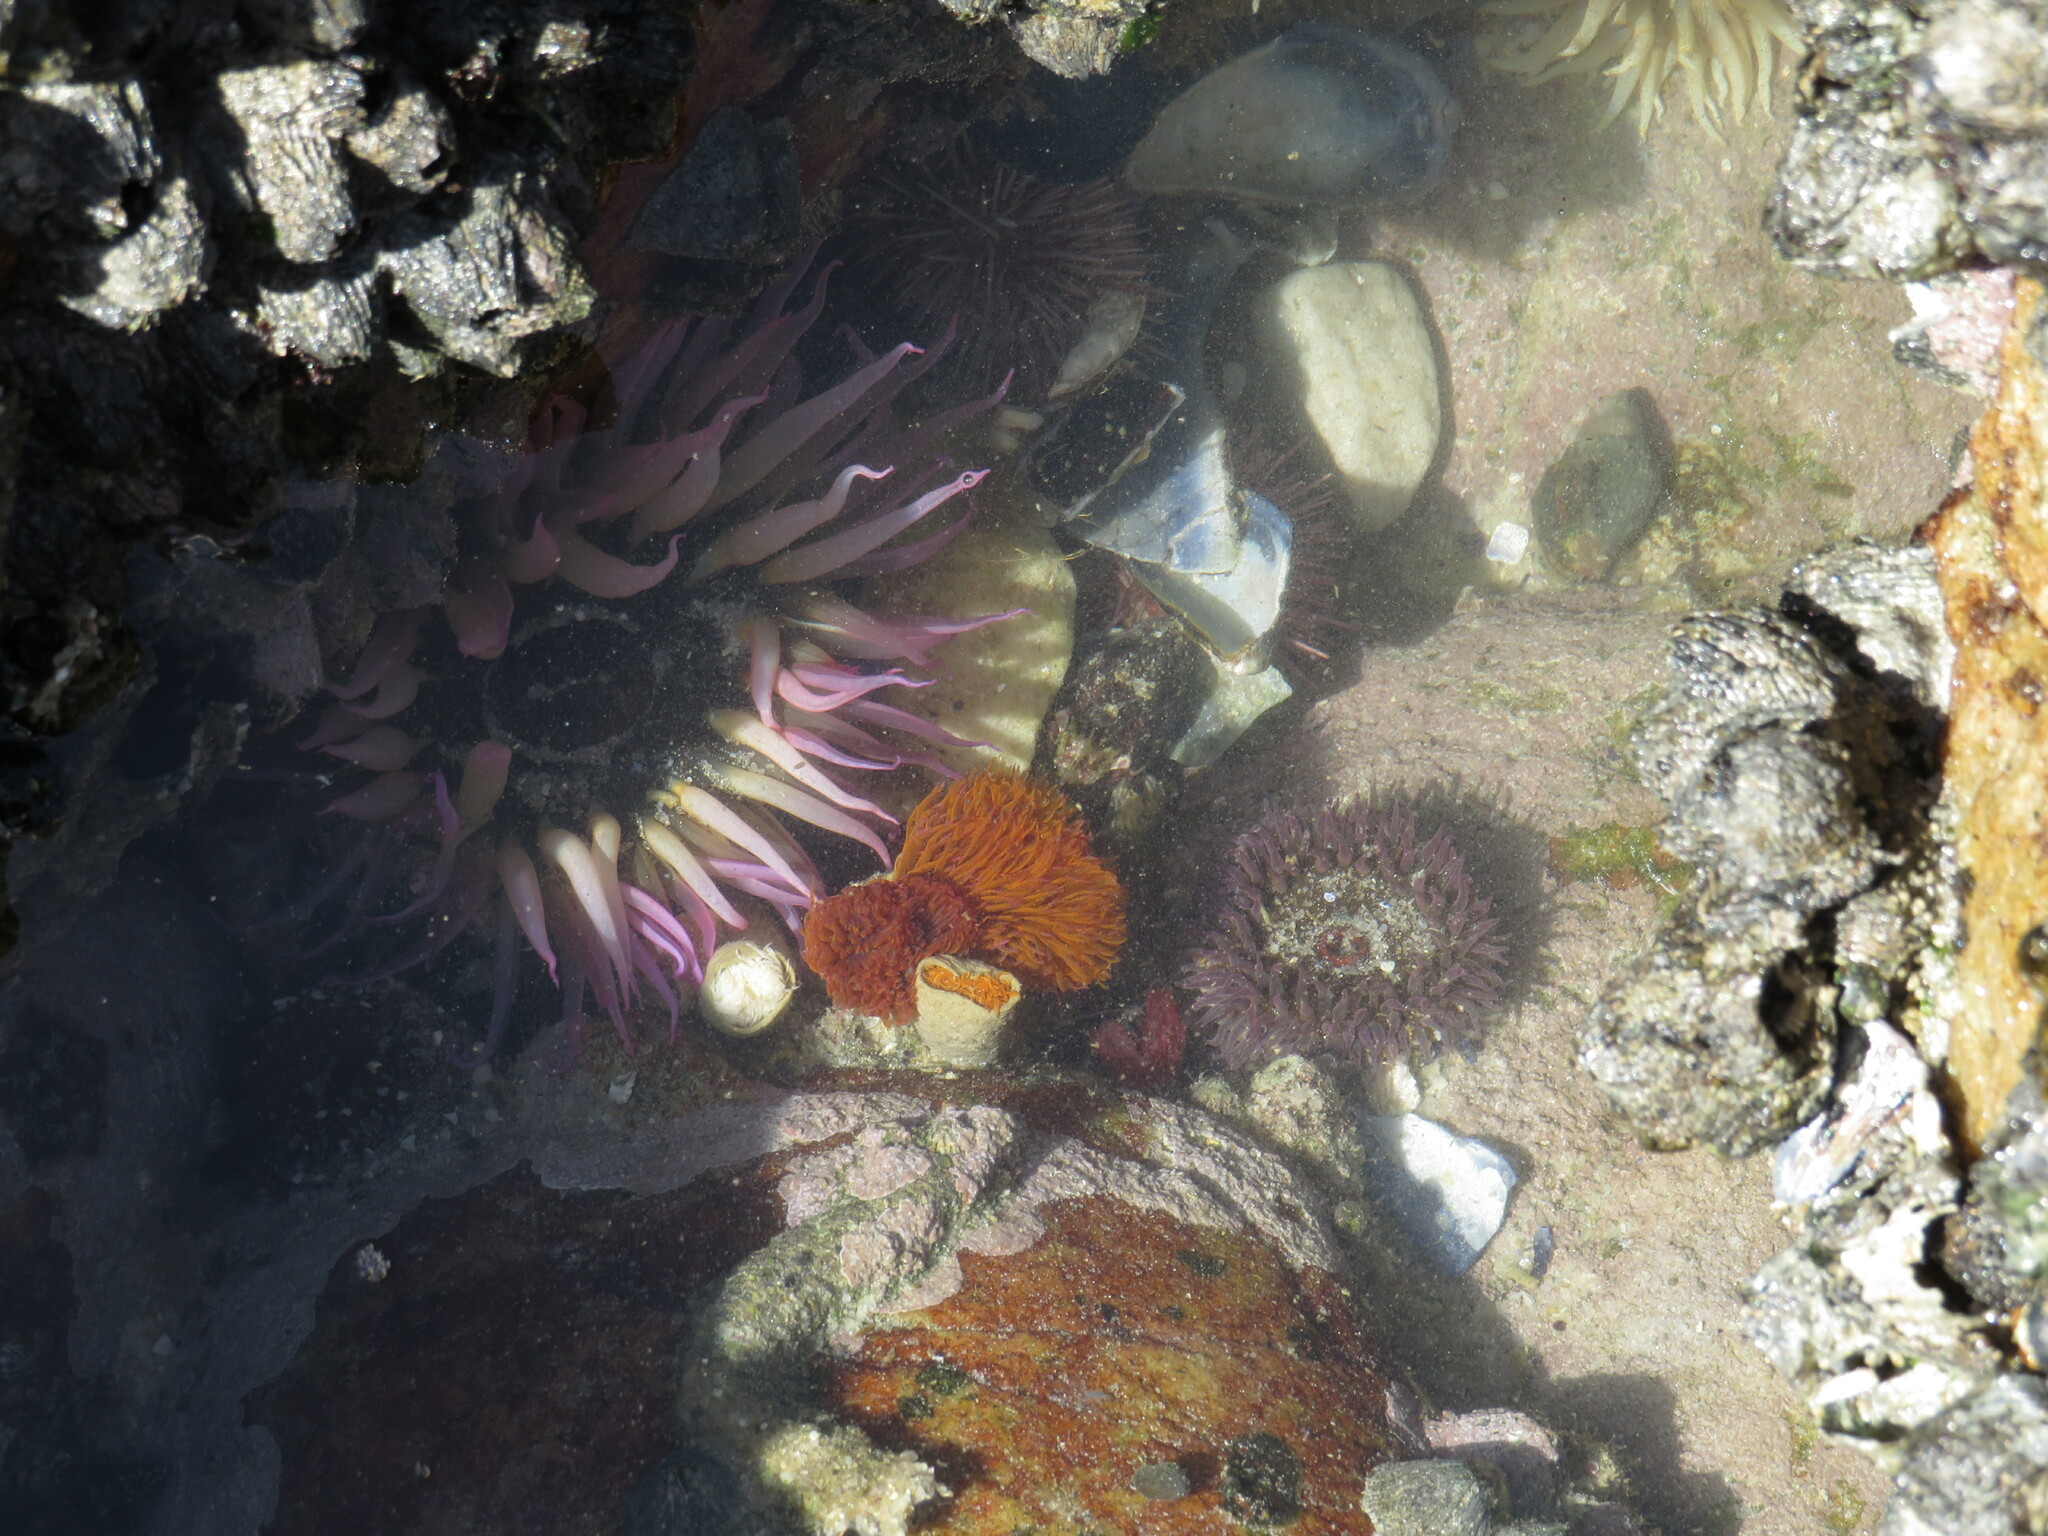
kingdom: Animalia
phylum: Cnidaria
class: Anthozoa
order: Actiniaria
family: Actiniidae
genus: Anthopleura
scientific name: Anthopleura michaelseni
